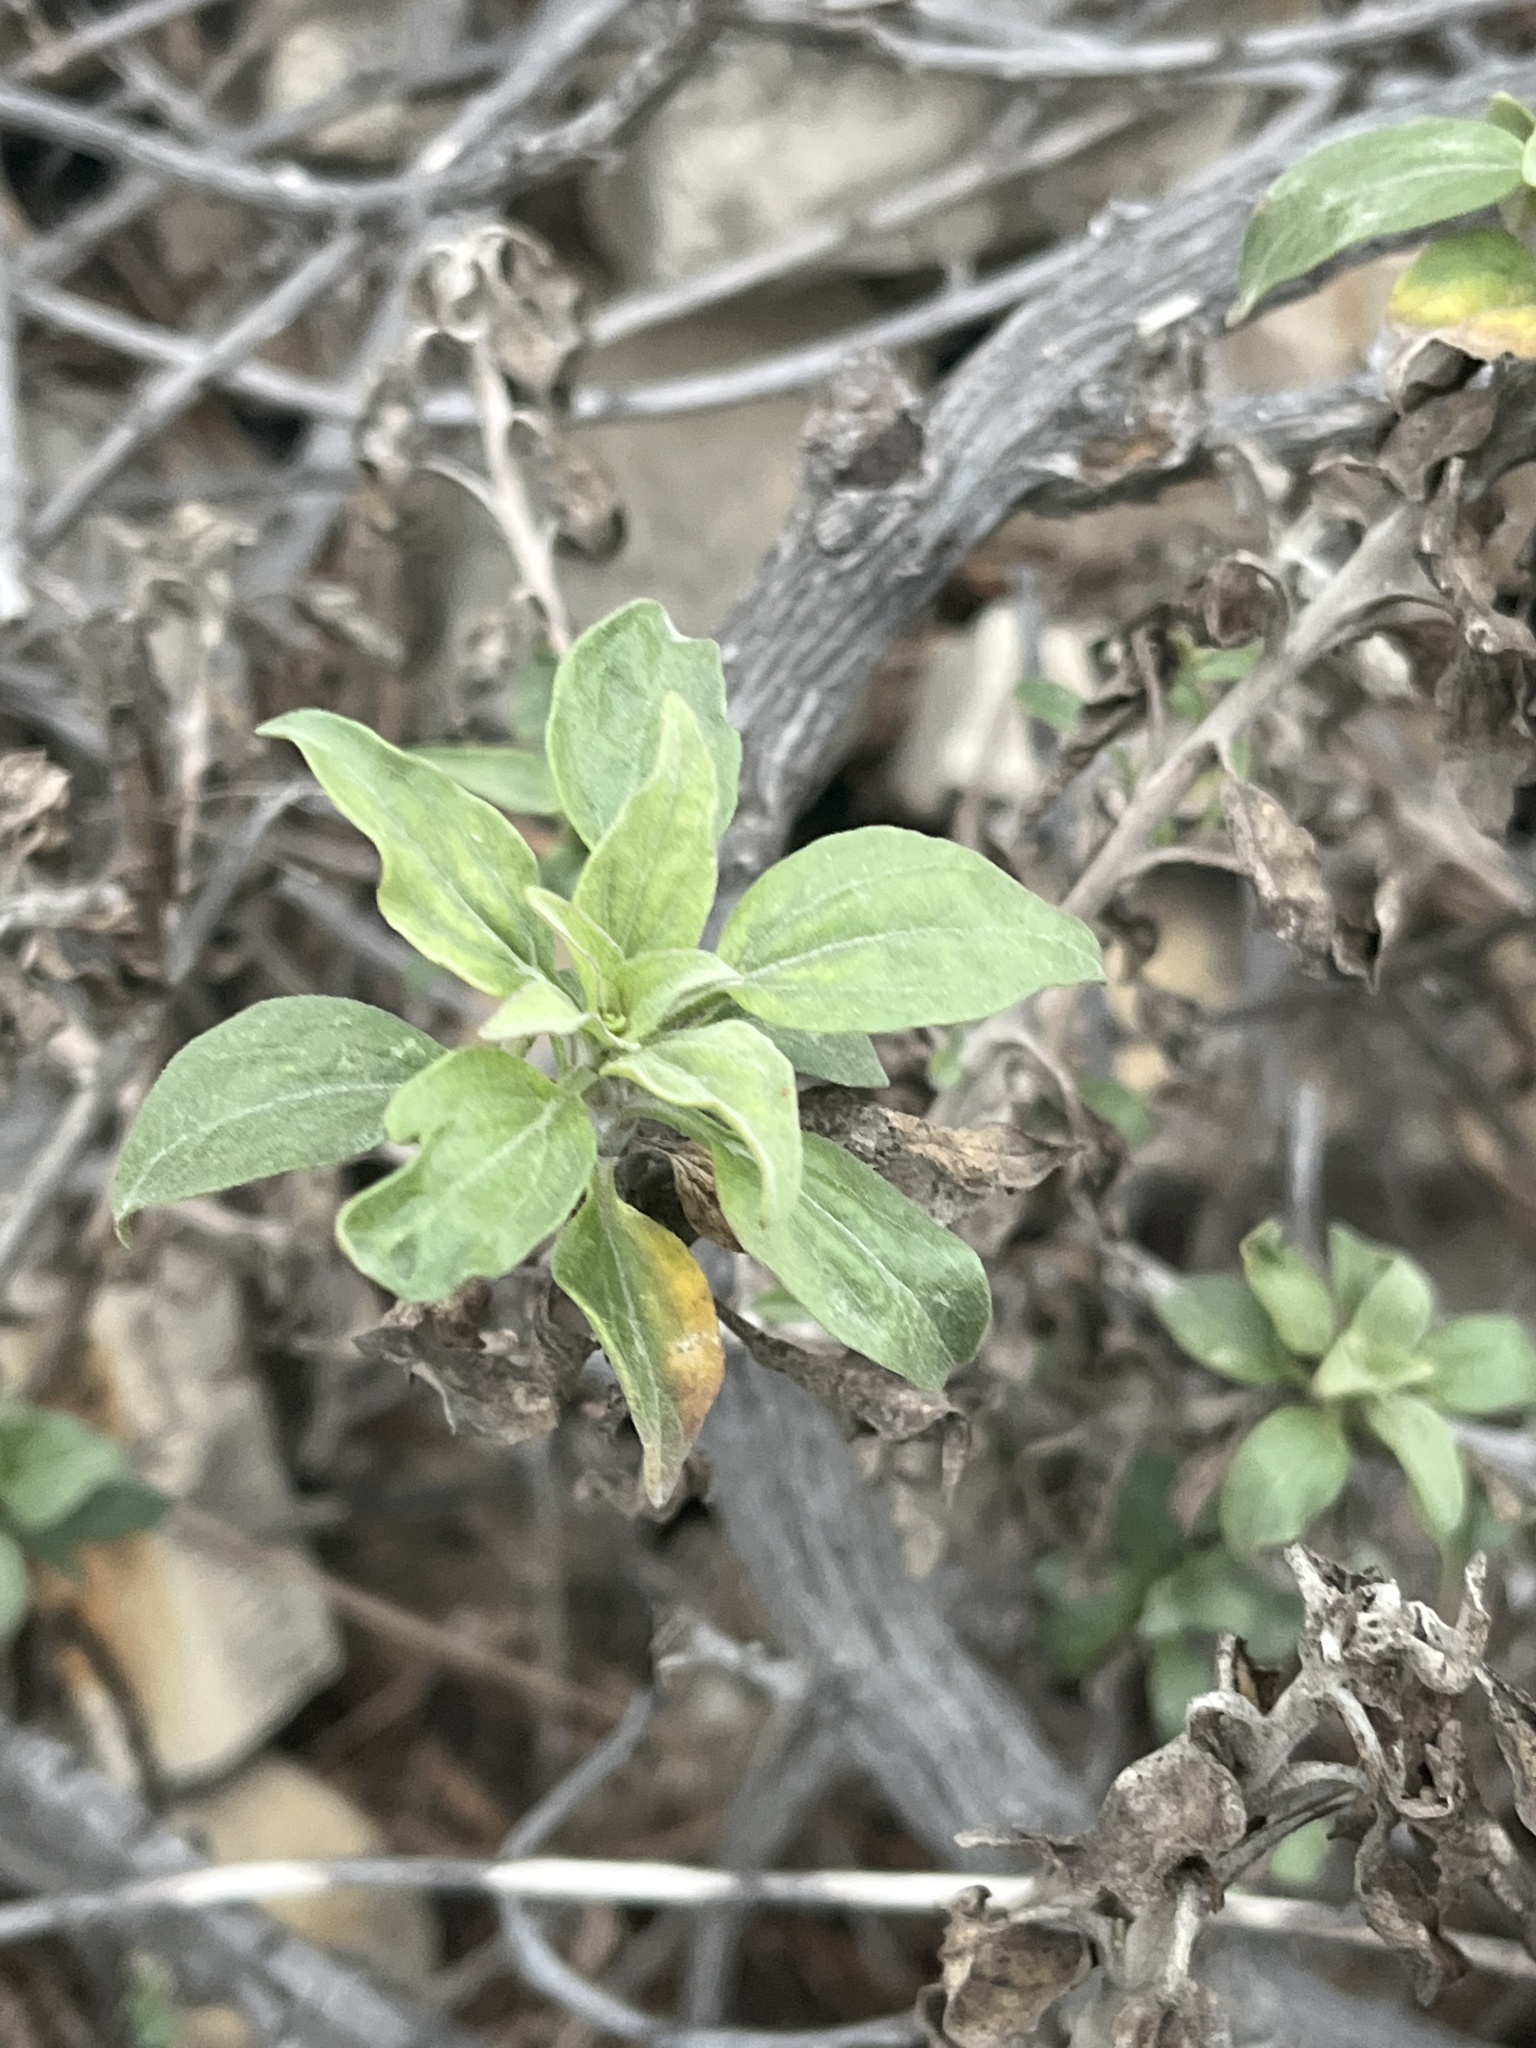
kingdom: Plantae
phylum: Tracheophyta
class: Magnoliopsida
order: Asterales
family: Asteraceae
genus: Encelia
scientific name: Encelia californica
